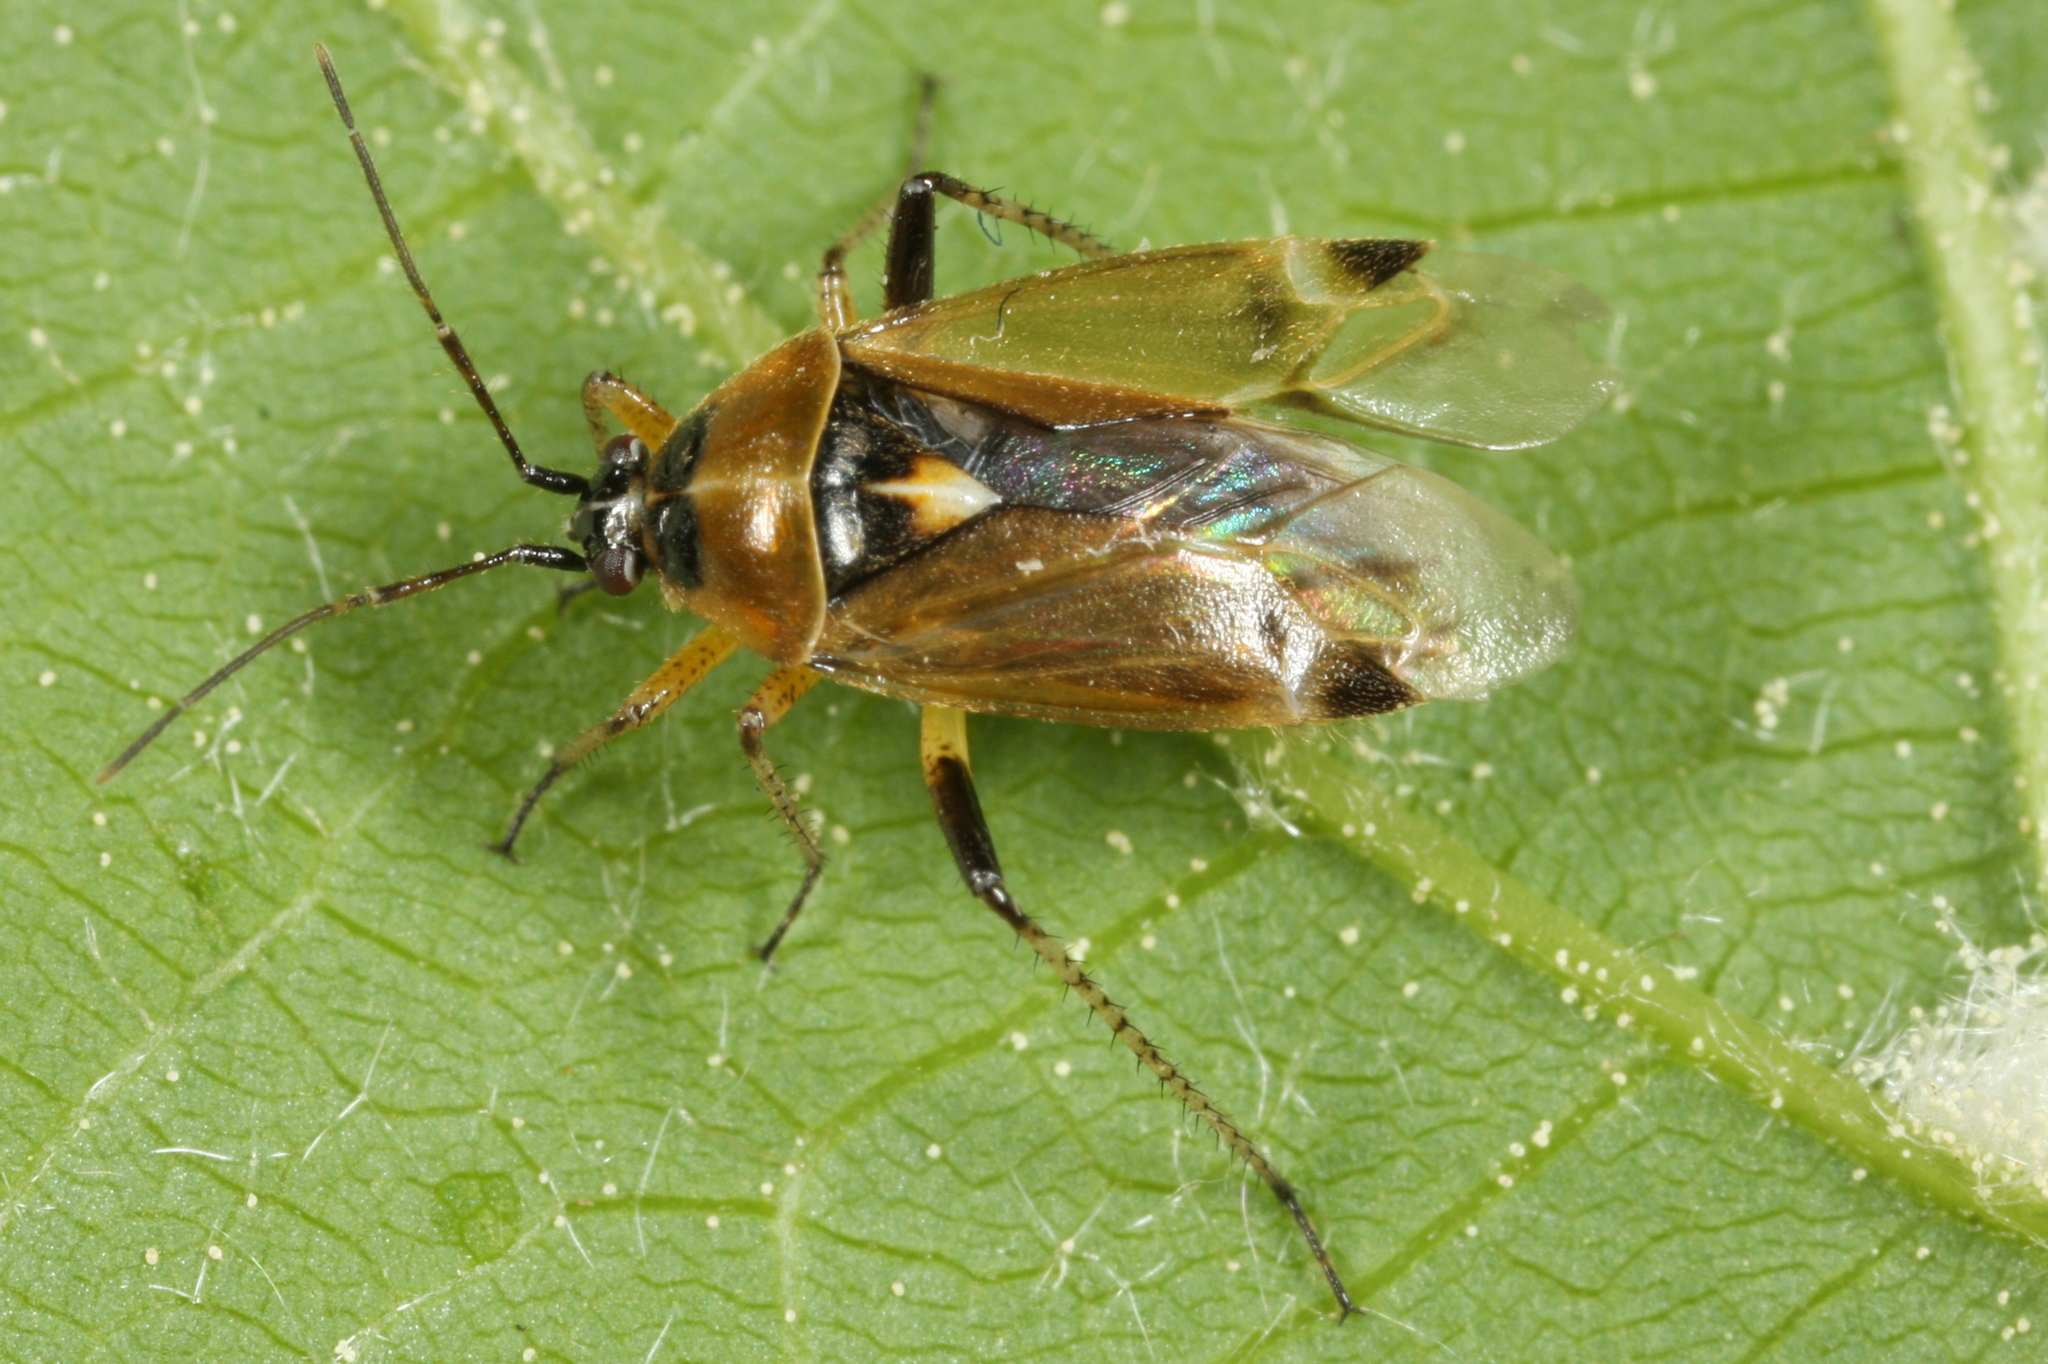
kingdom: Animalia
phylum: Arthropoda
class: Insecta
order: Hemiptera
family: Miridae
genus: Harpocera
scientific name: Harpocera thoracica
